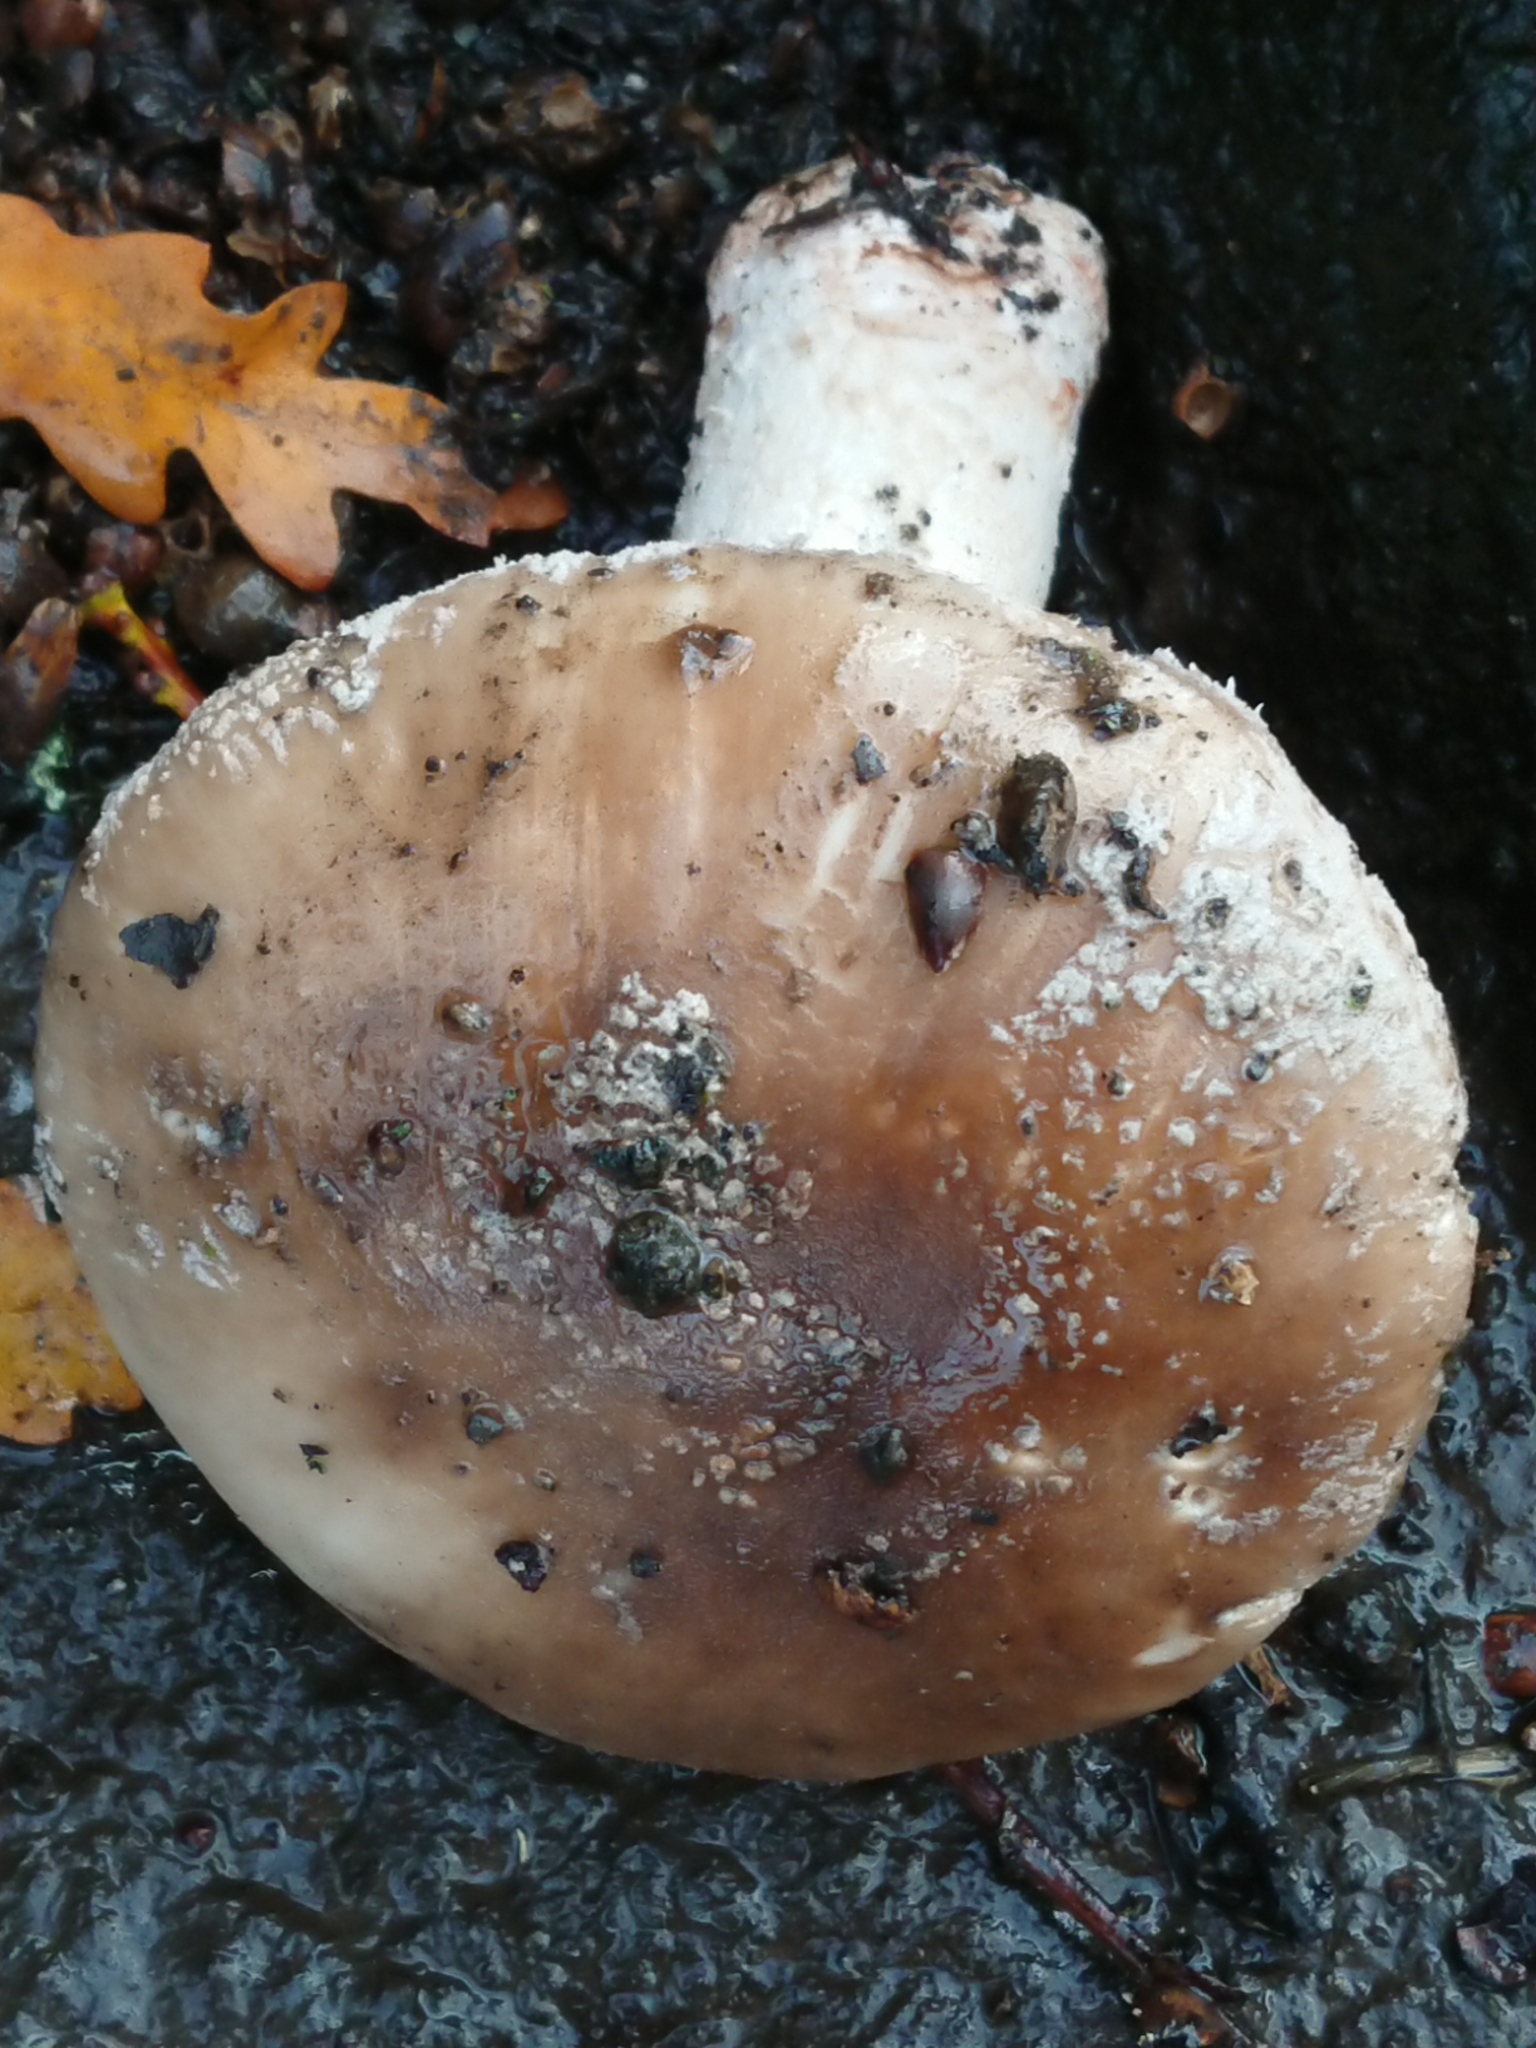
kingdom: Fungi
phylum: Basidiomycota
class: Agaricomycetes
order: Agaricales
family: Amanitaceae
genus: Amanita
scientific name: Amanita excelsa
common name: European false blusher
